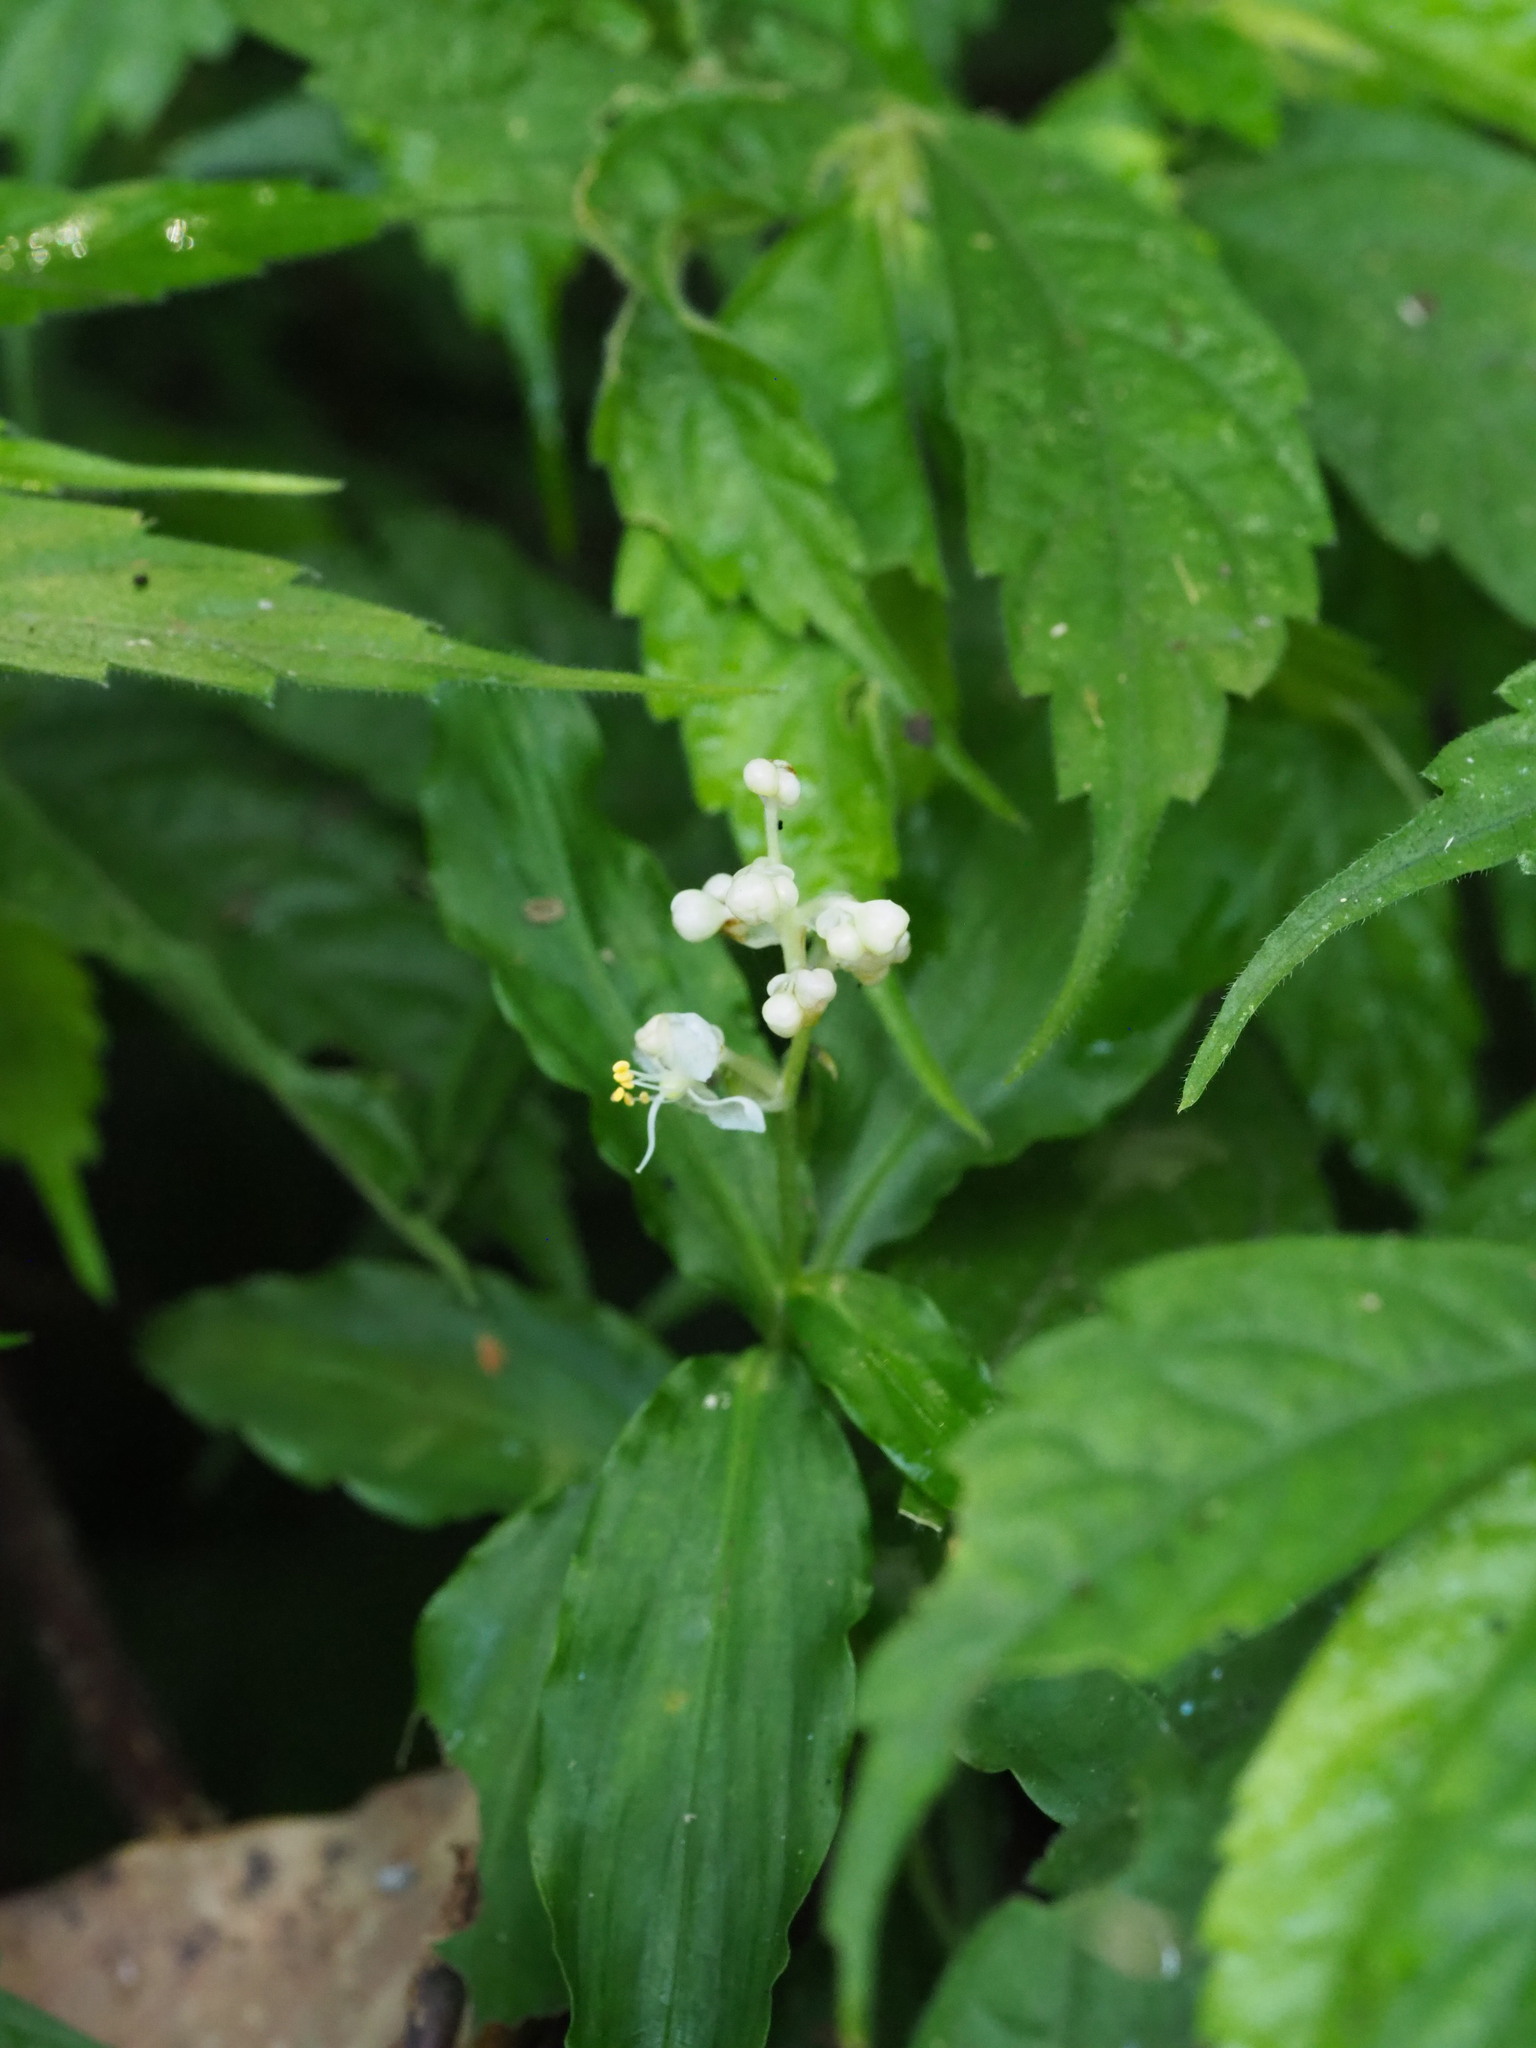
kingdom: Plantae
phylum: Tracheophyta
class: Liliopsida
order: Commelinales
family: Commelinaceae
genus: Pollia
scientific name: Pollia miranda
